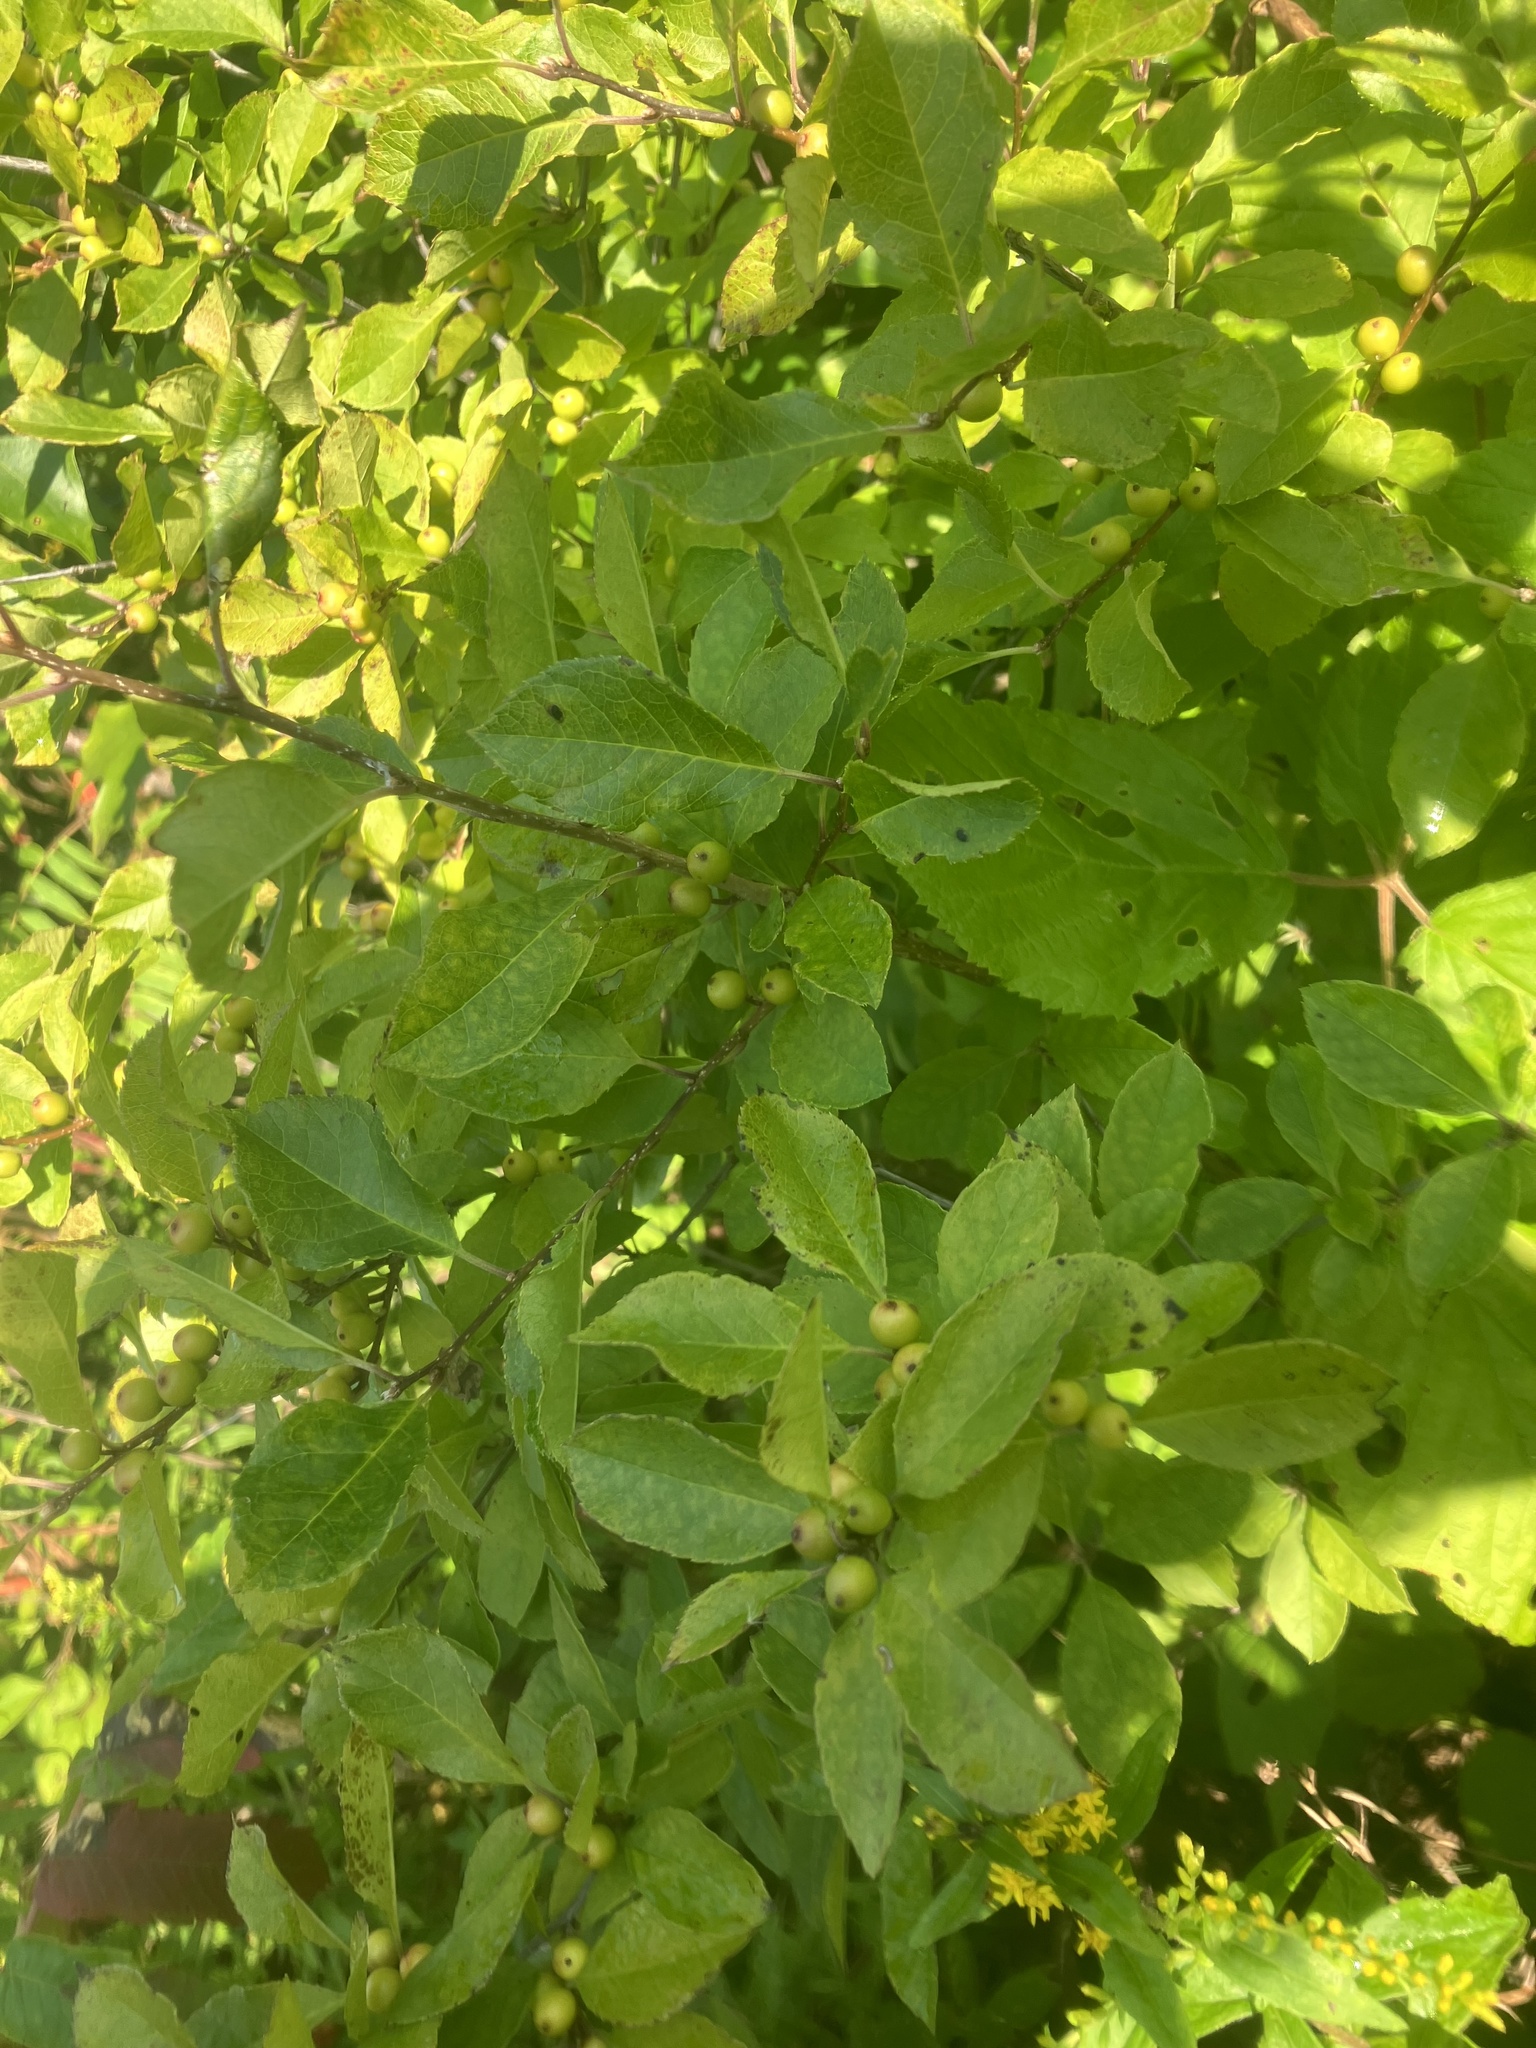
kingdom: Plantae
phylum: Tracheophyta
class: Magnoliopsida
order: Aquifoliales
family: Aquifoliaceae
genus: Ilex
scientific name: Ilex verticillata
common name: Virginia winterberry
